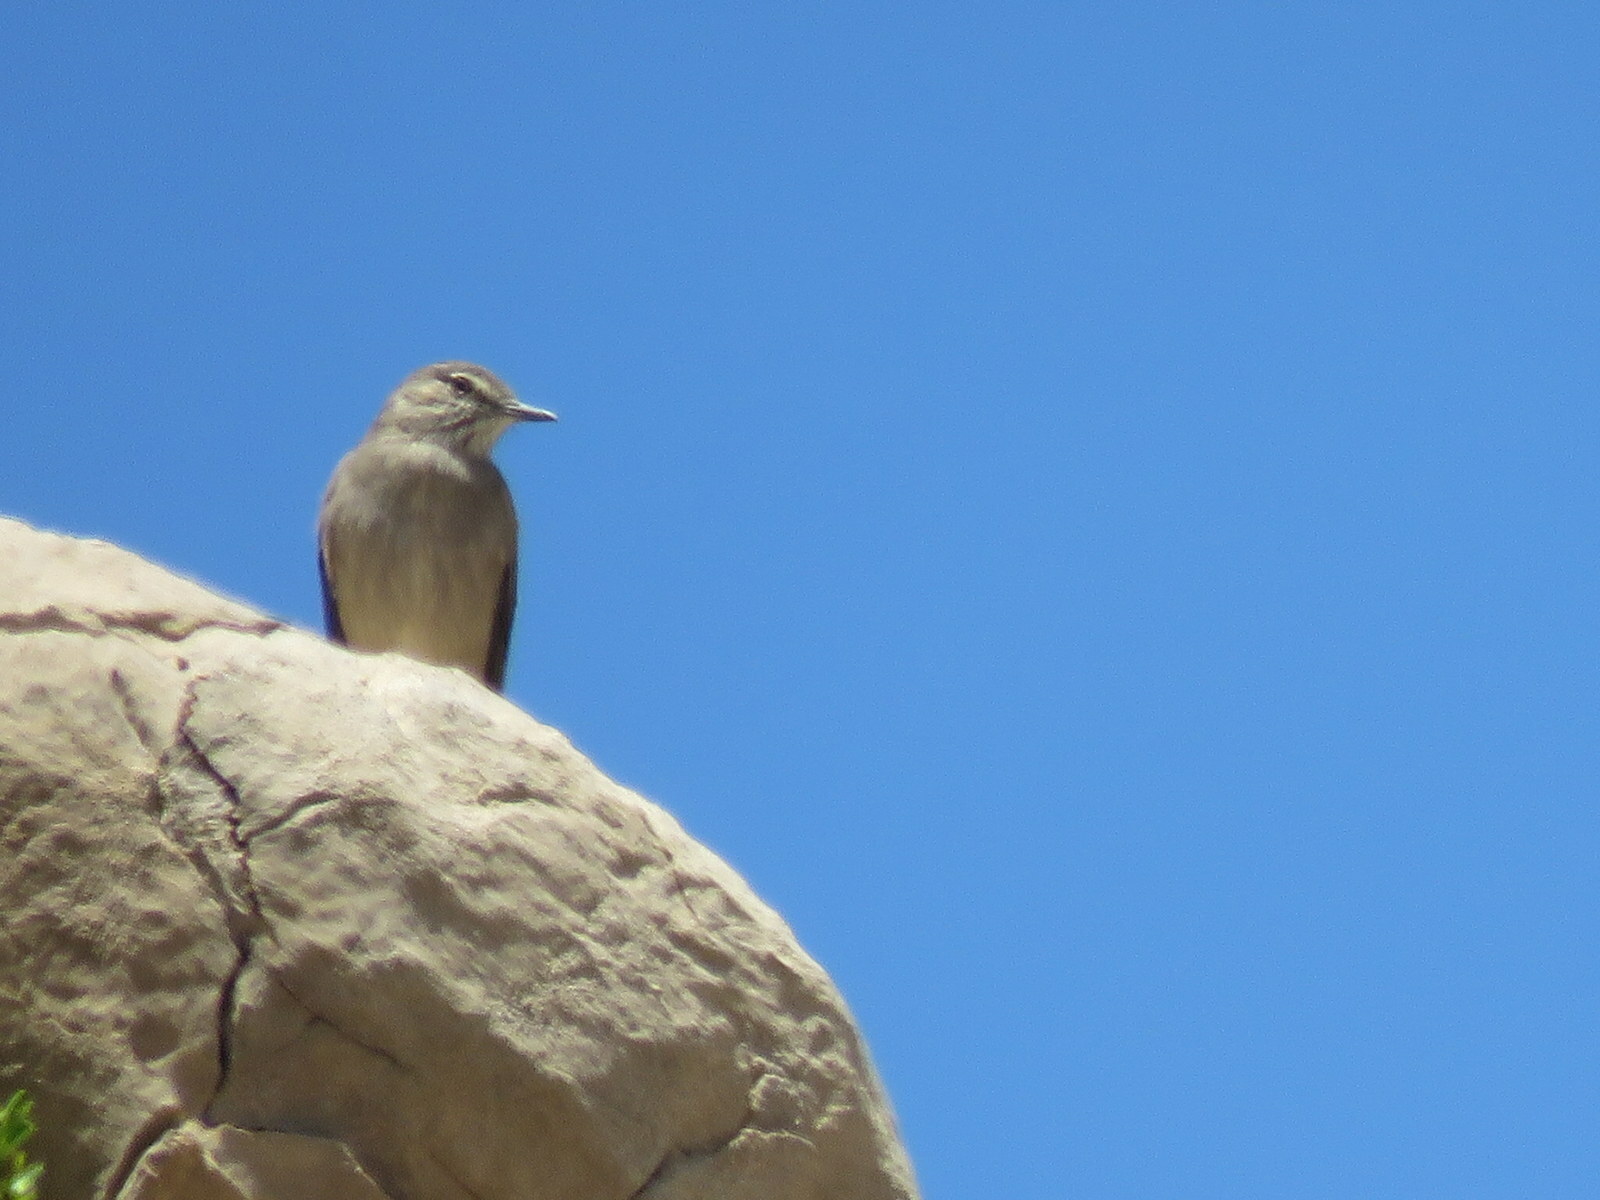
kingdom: Animalia
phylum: Chordata
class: Aves
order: Passeriformes
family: Tyrannidae
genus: Agriornis
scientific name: Agriornis montanus
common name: Black-billed shrike-tyrant
